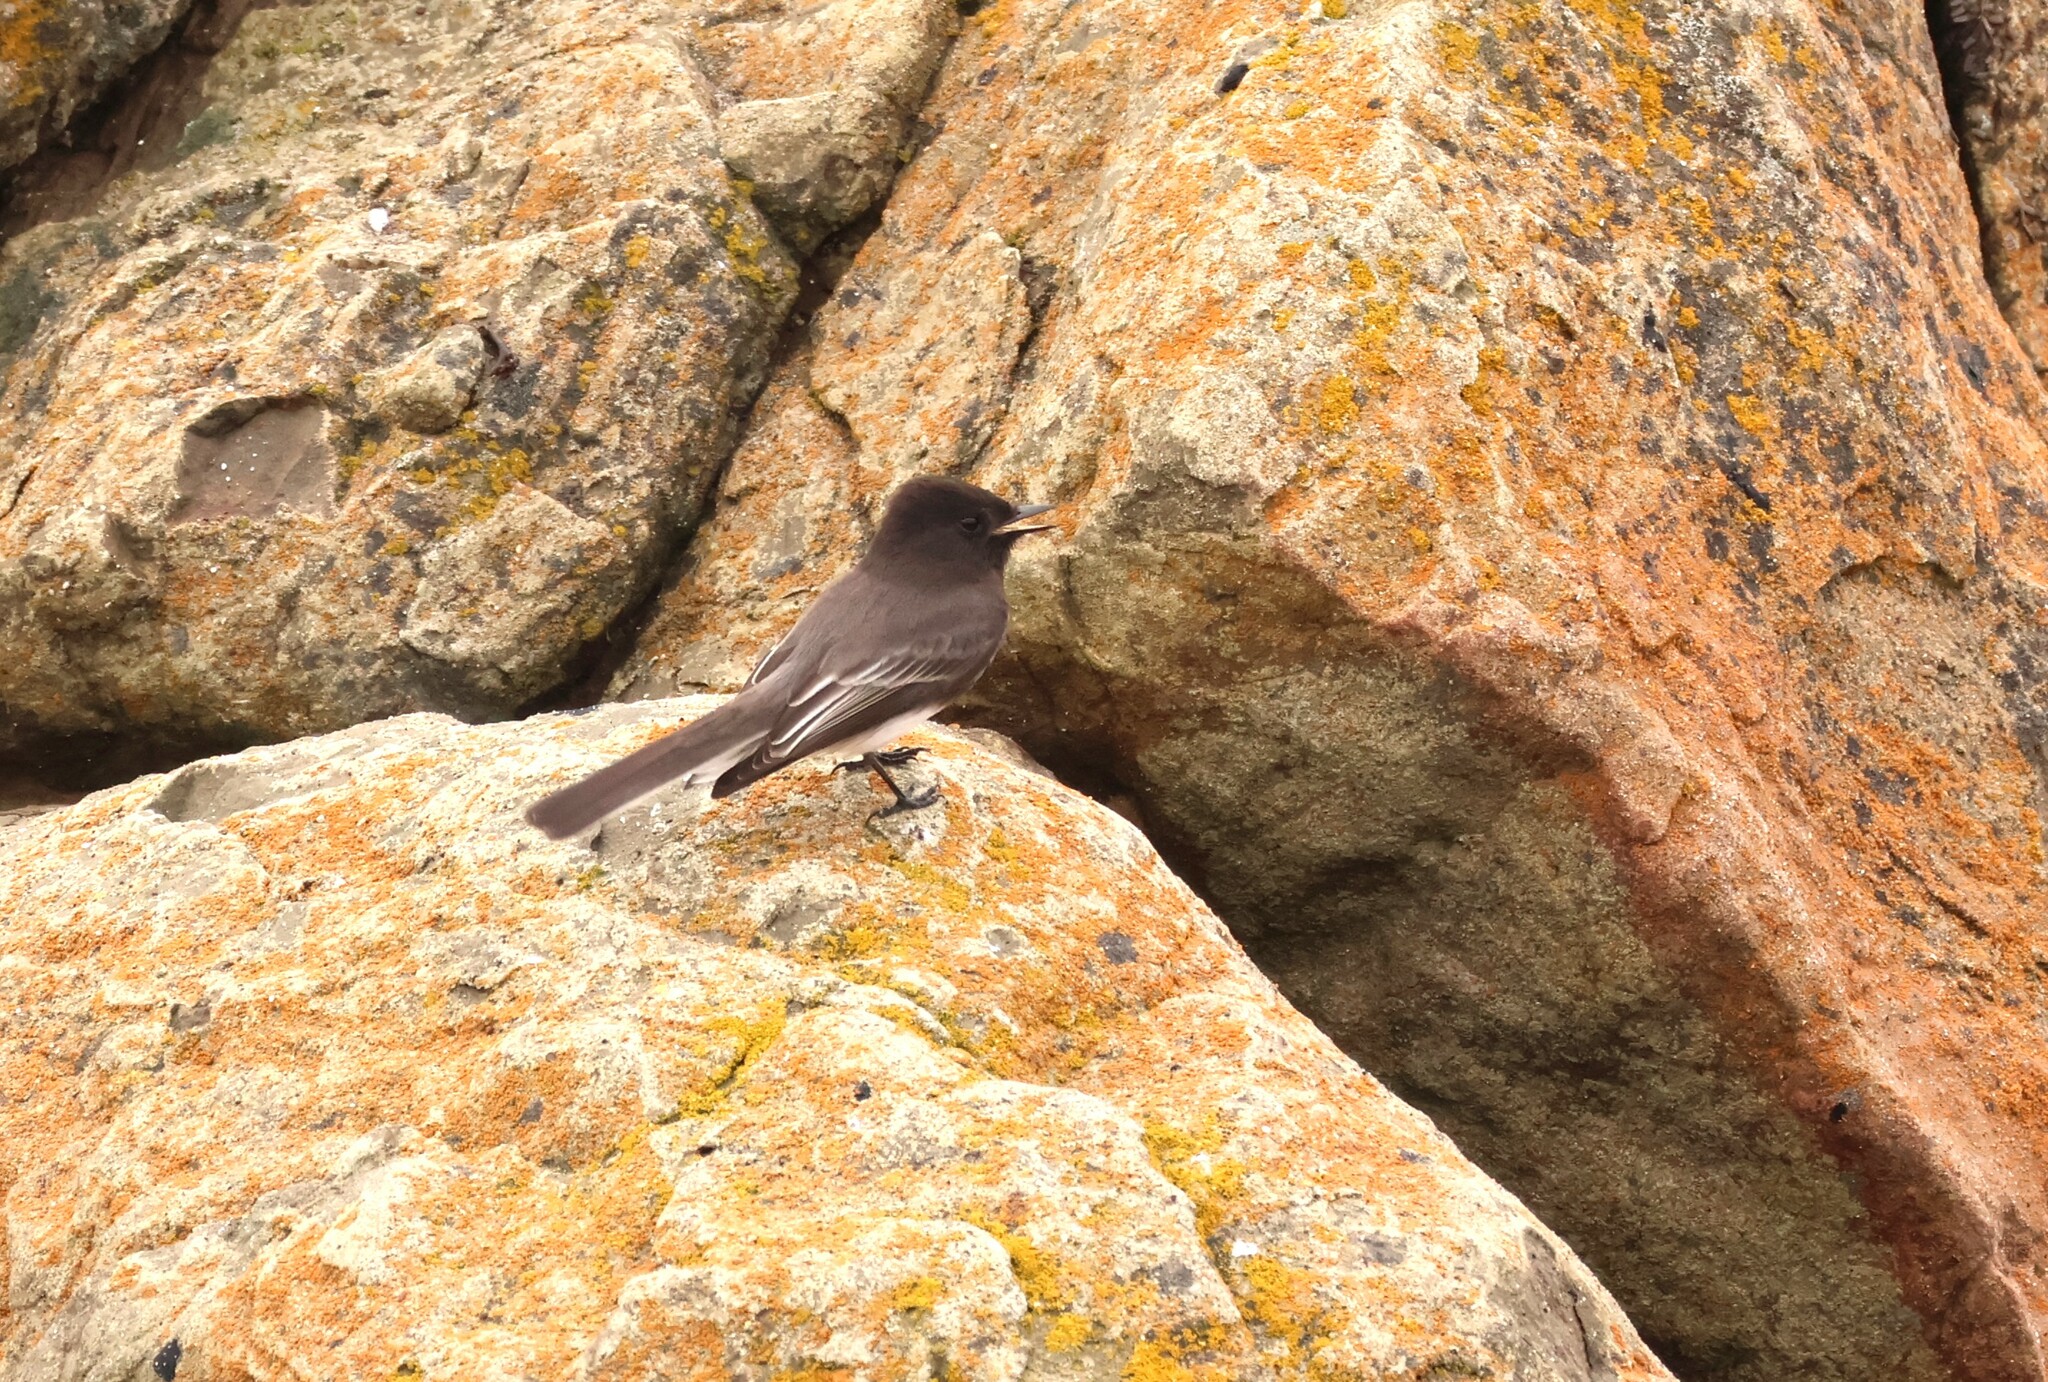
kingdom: Animalia
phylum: Chordata
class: Aves
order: Passeriformes
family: Tyrannidae
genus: Sayornis
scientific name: Sayornis nigricans
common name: Black phoebe
